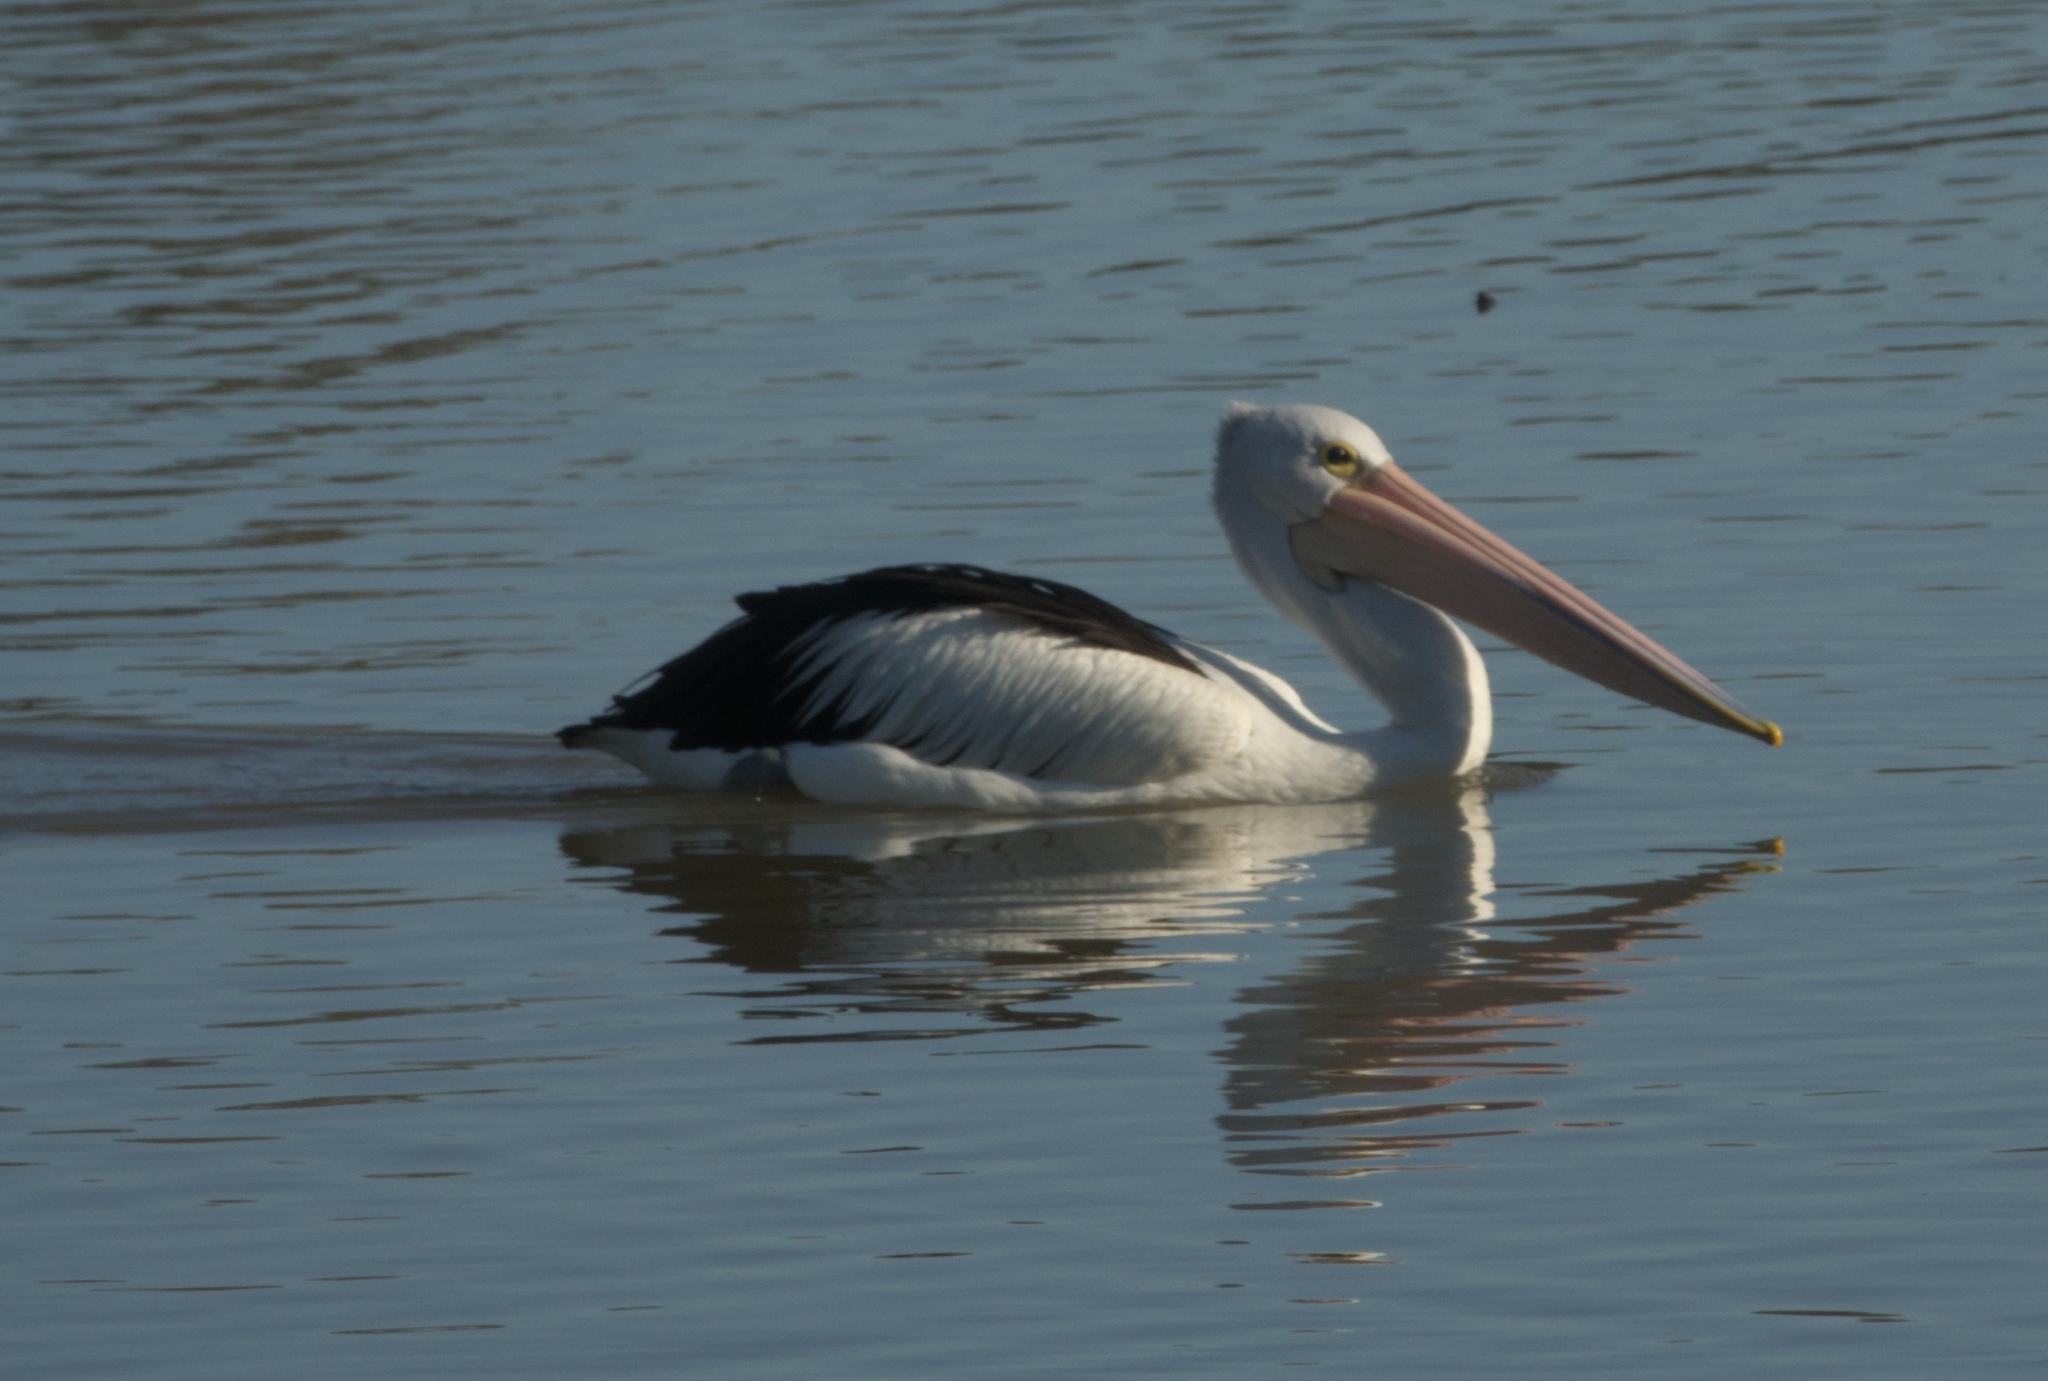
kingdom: Animalia
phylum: Chordata
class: Aves
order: Pelecaniformes
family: Pelecanidae
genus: Pelecanus
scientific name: Pelecanus conspicillatus
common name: Australian pelican
